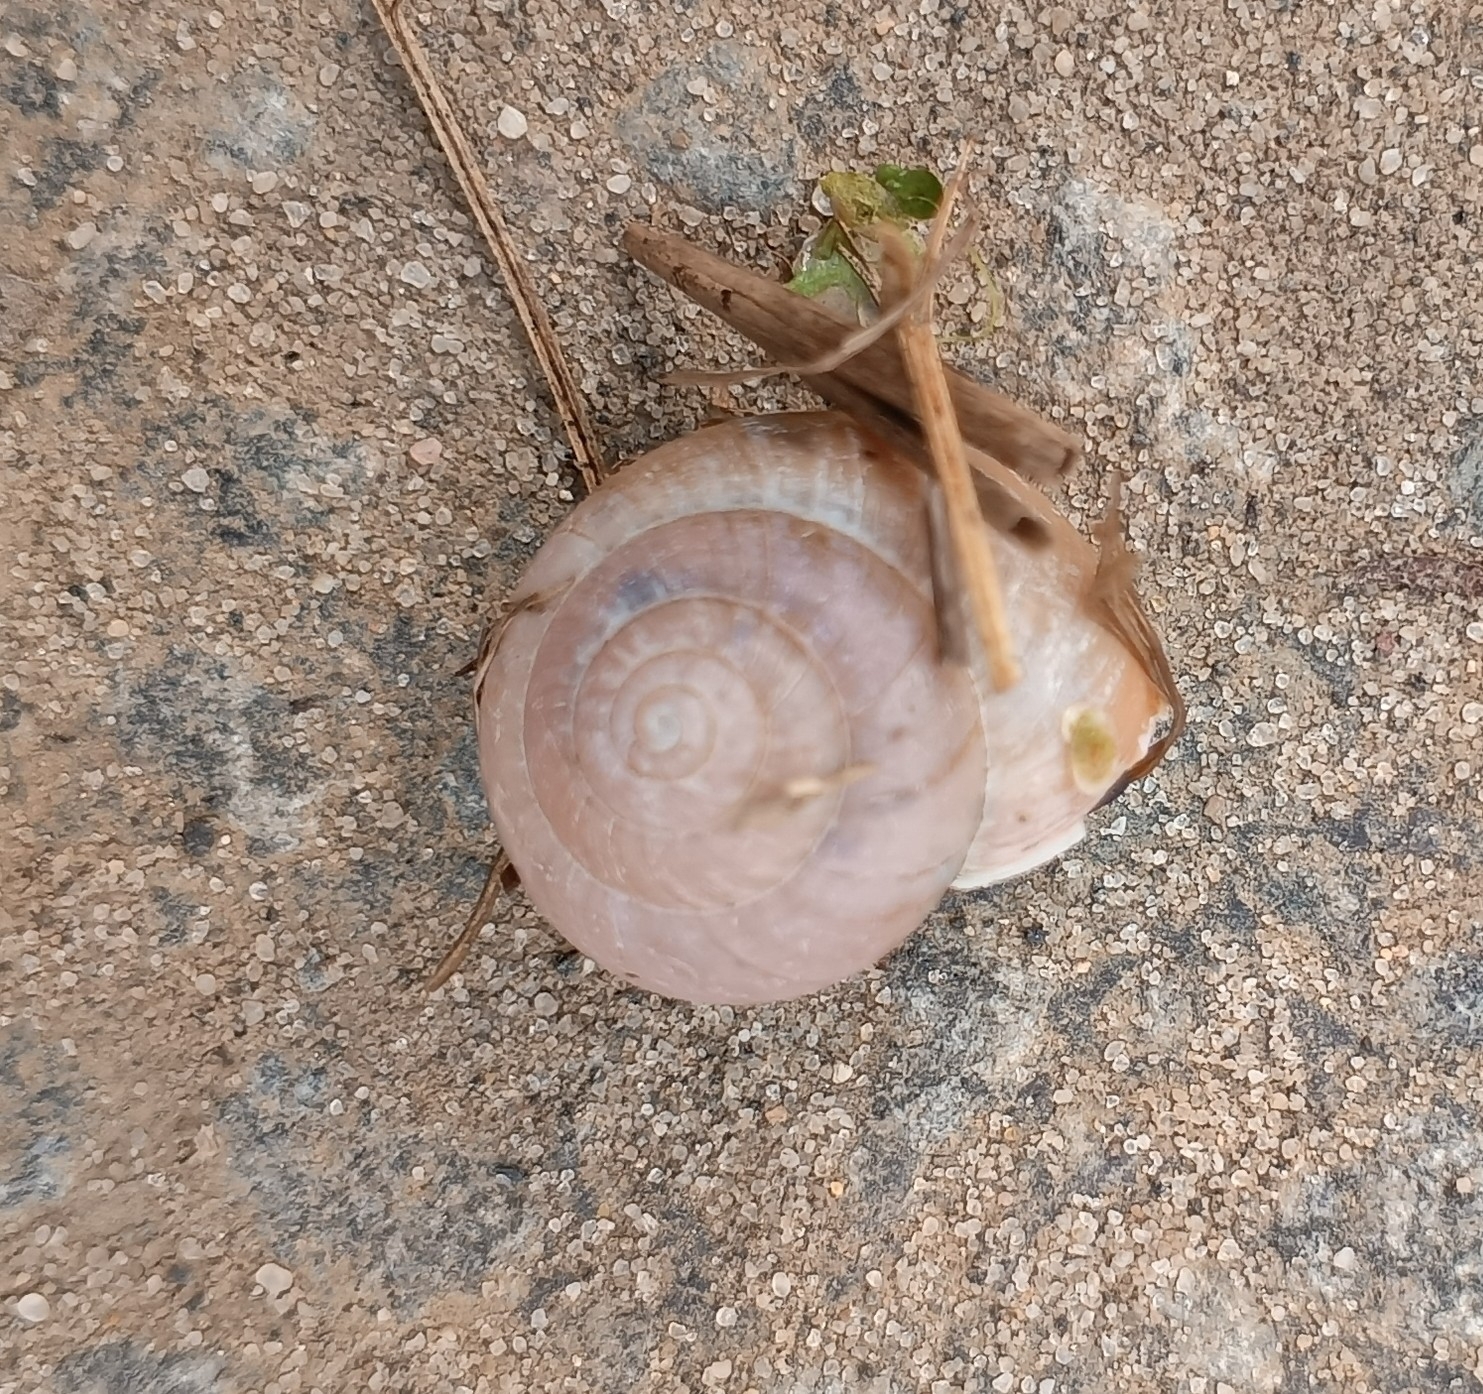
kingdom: Animalia
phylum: Mollusca
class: Gastropoda
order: Stylommatophora
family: Camaenidae
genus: Fruticicola
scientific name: Fruticicola fruticum
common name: Bush snail
